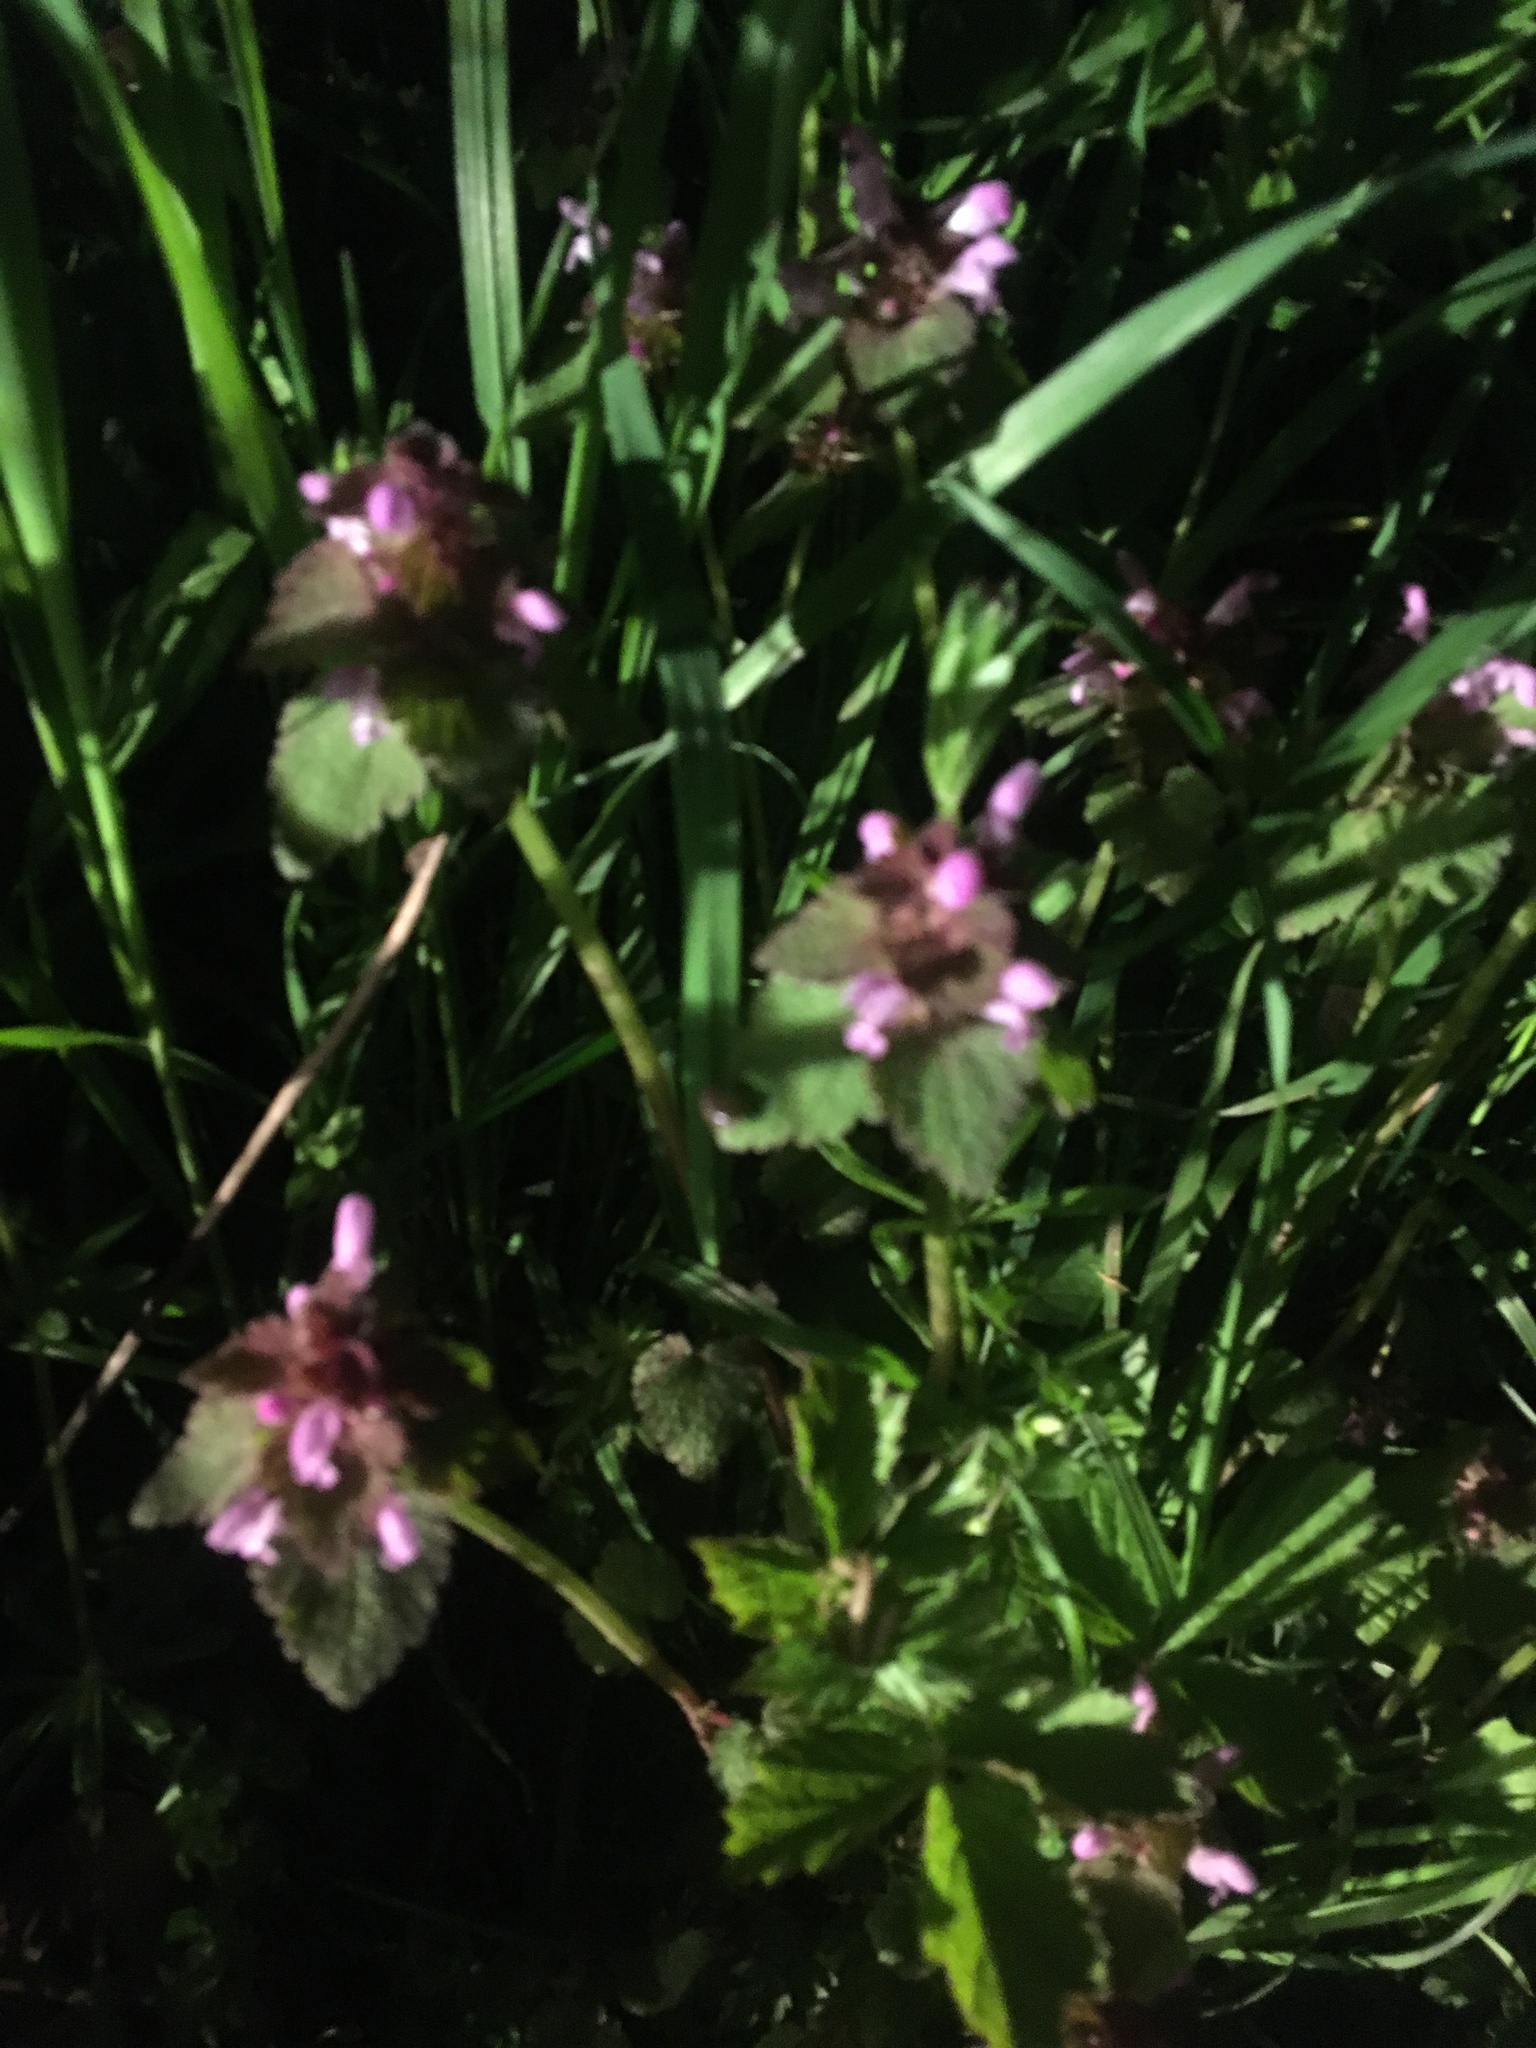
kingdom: Plantae
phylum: Tracheophyta
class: Magnoliopsida
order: Lamiales
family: Lamiaceae
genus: Lamium
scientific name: Lamium purpureum
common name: Red dead-nettle
